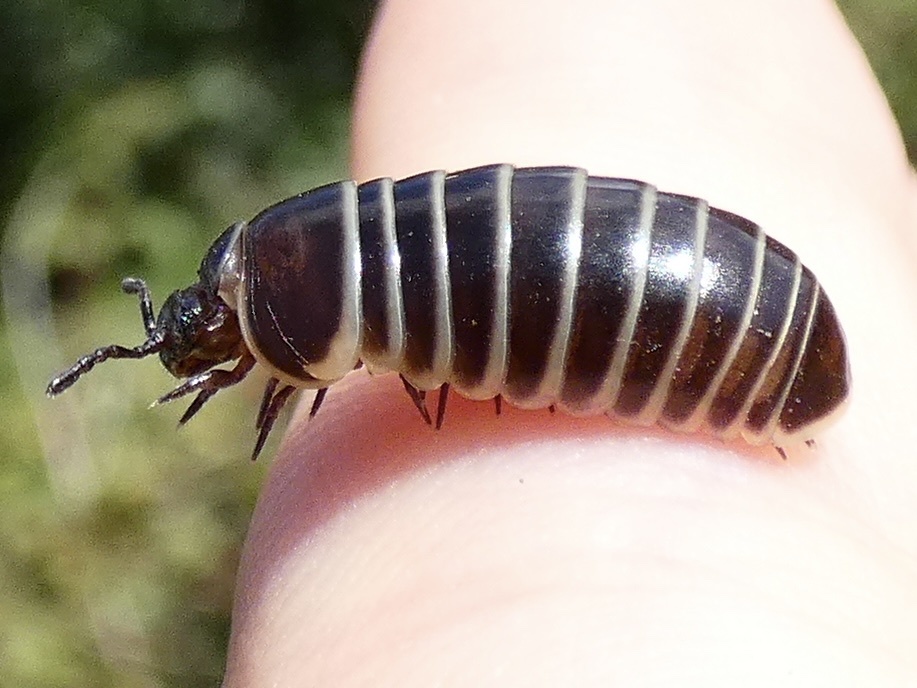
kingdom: Animalia
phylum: Arthropoda
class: Diplopoda
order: Glomerida
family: Glomeridae
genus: Glomeris
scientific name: Glomeris marginata
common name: Bordered pill millipede
